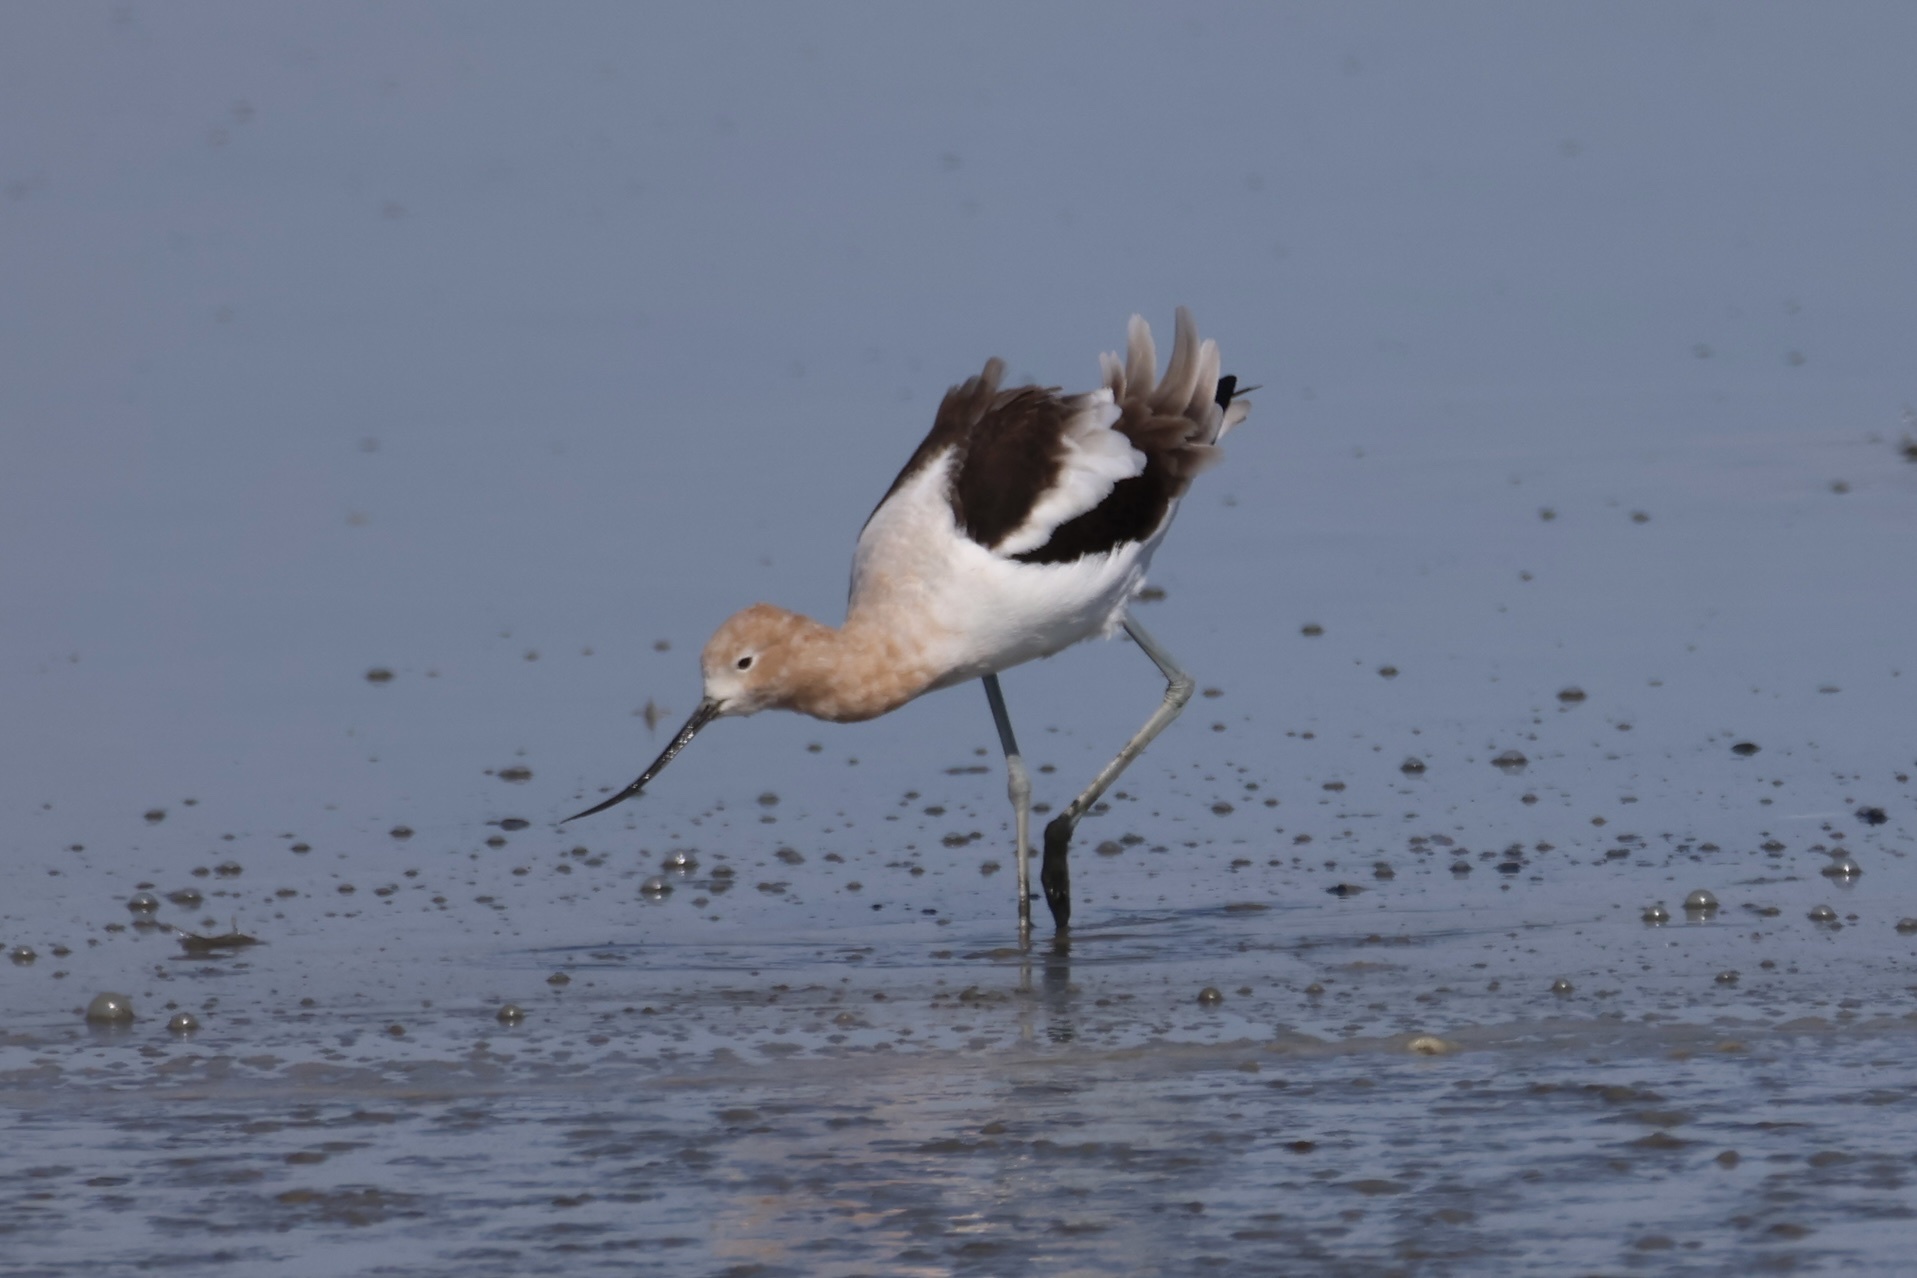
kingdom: Animalia
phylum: Chordata
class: Aves
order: Charadriiformes
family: Recurvirostridae
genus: Recurvirostra
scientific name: Recurvirostra americana
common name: American avocet
